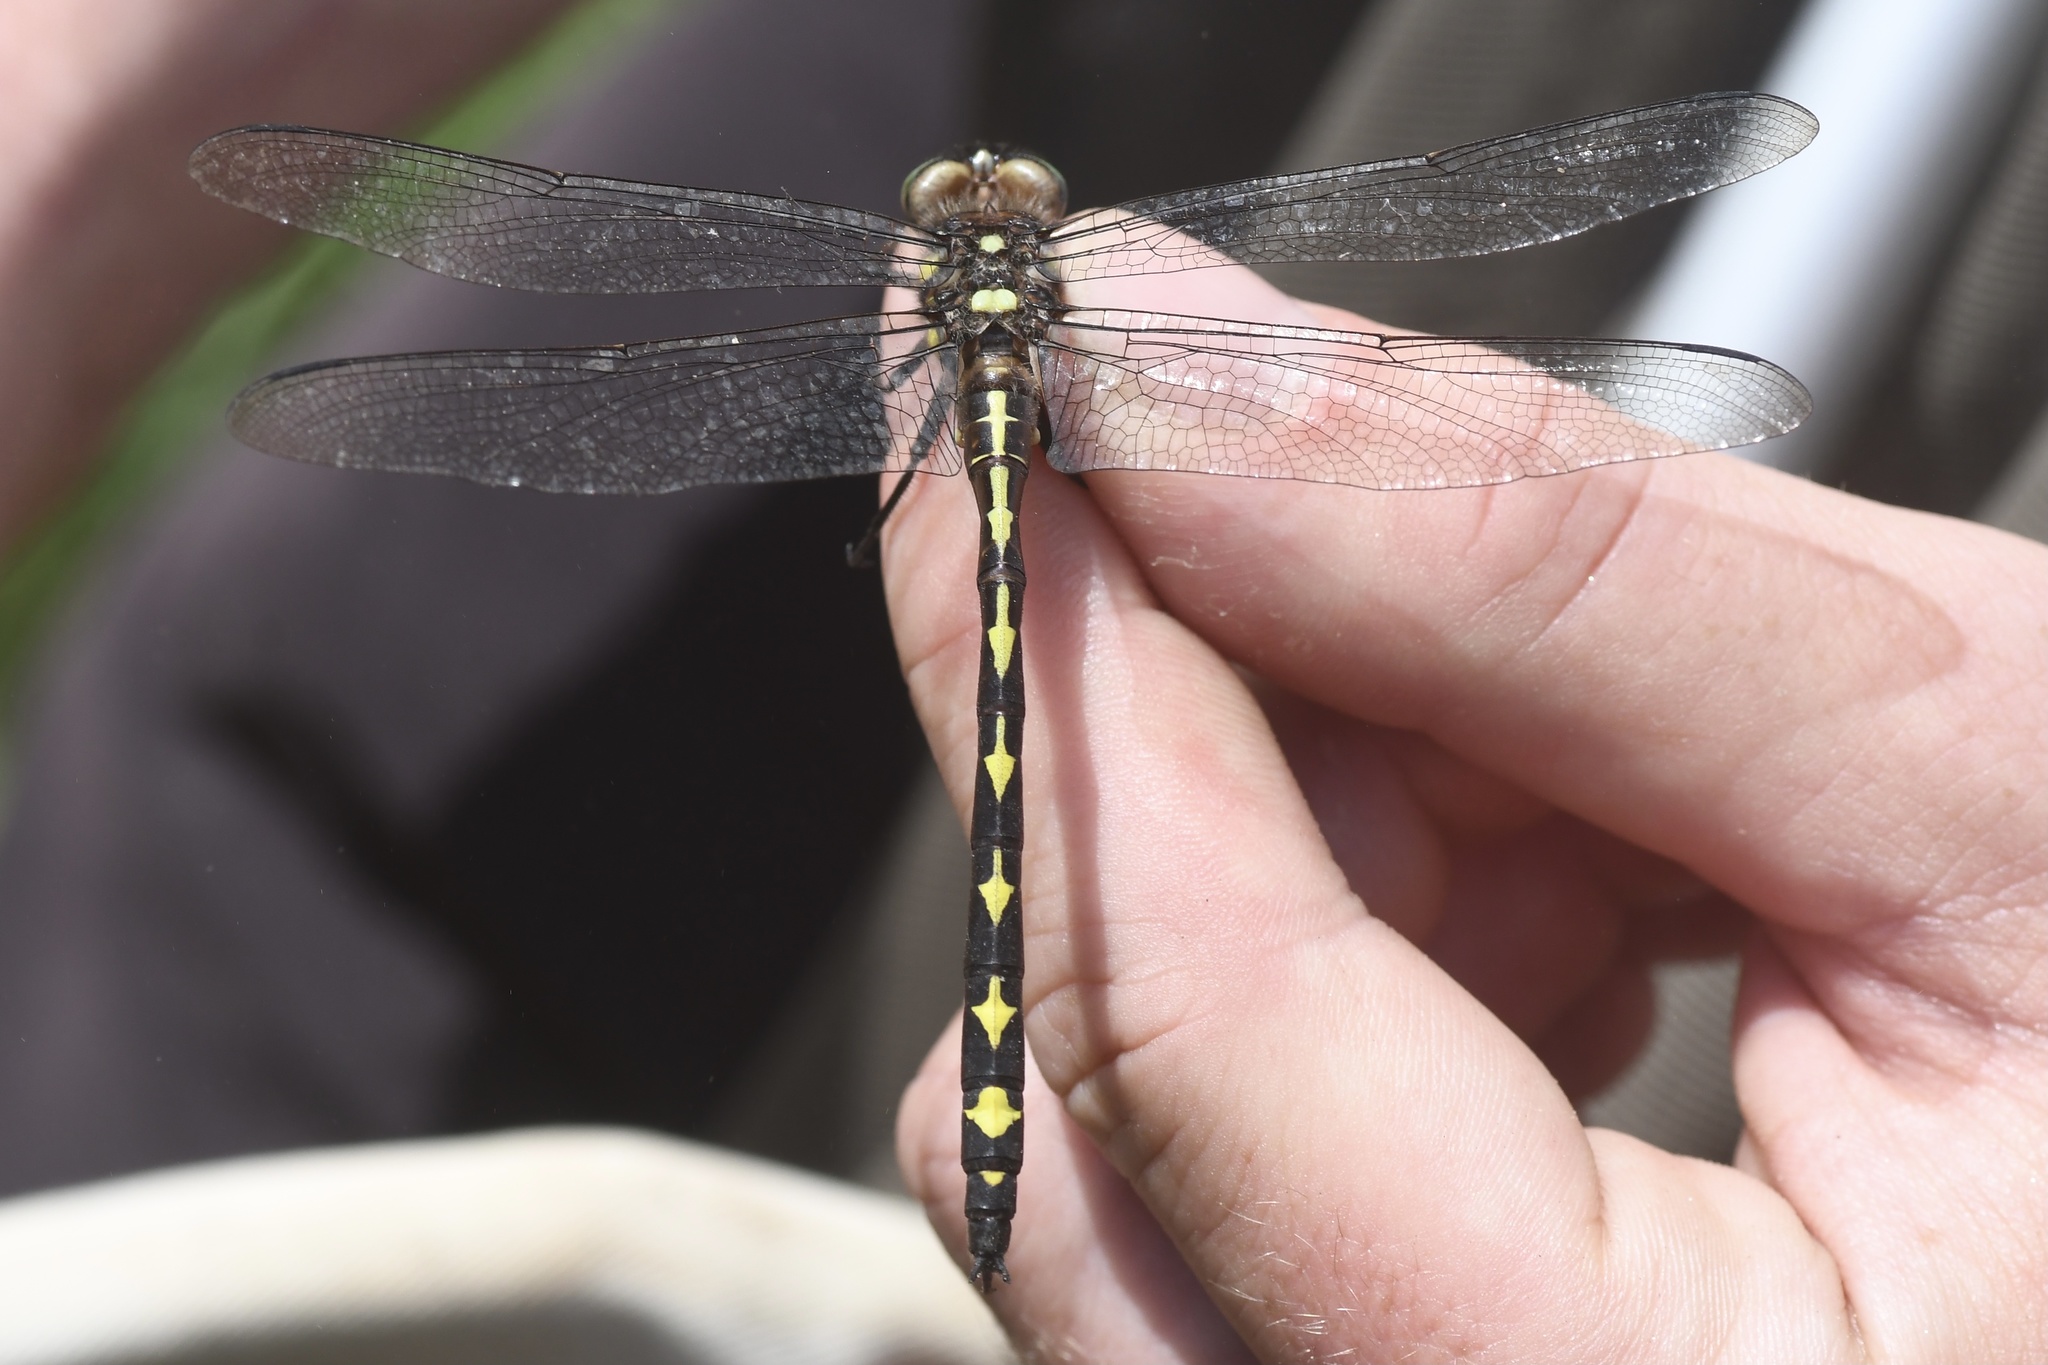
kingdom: Animalia
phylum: Arthropoda
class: Insecta
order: Odonata
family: Cordulegastridae
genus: Cordulegaster
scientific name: Cordulegaster obliqua
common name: Arrowhead spiketail
